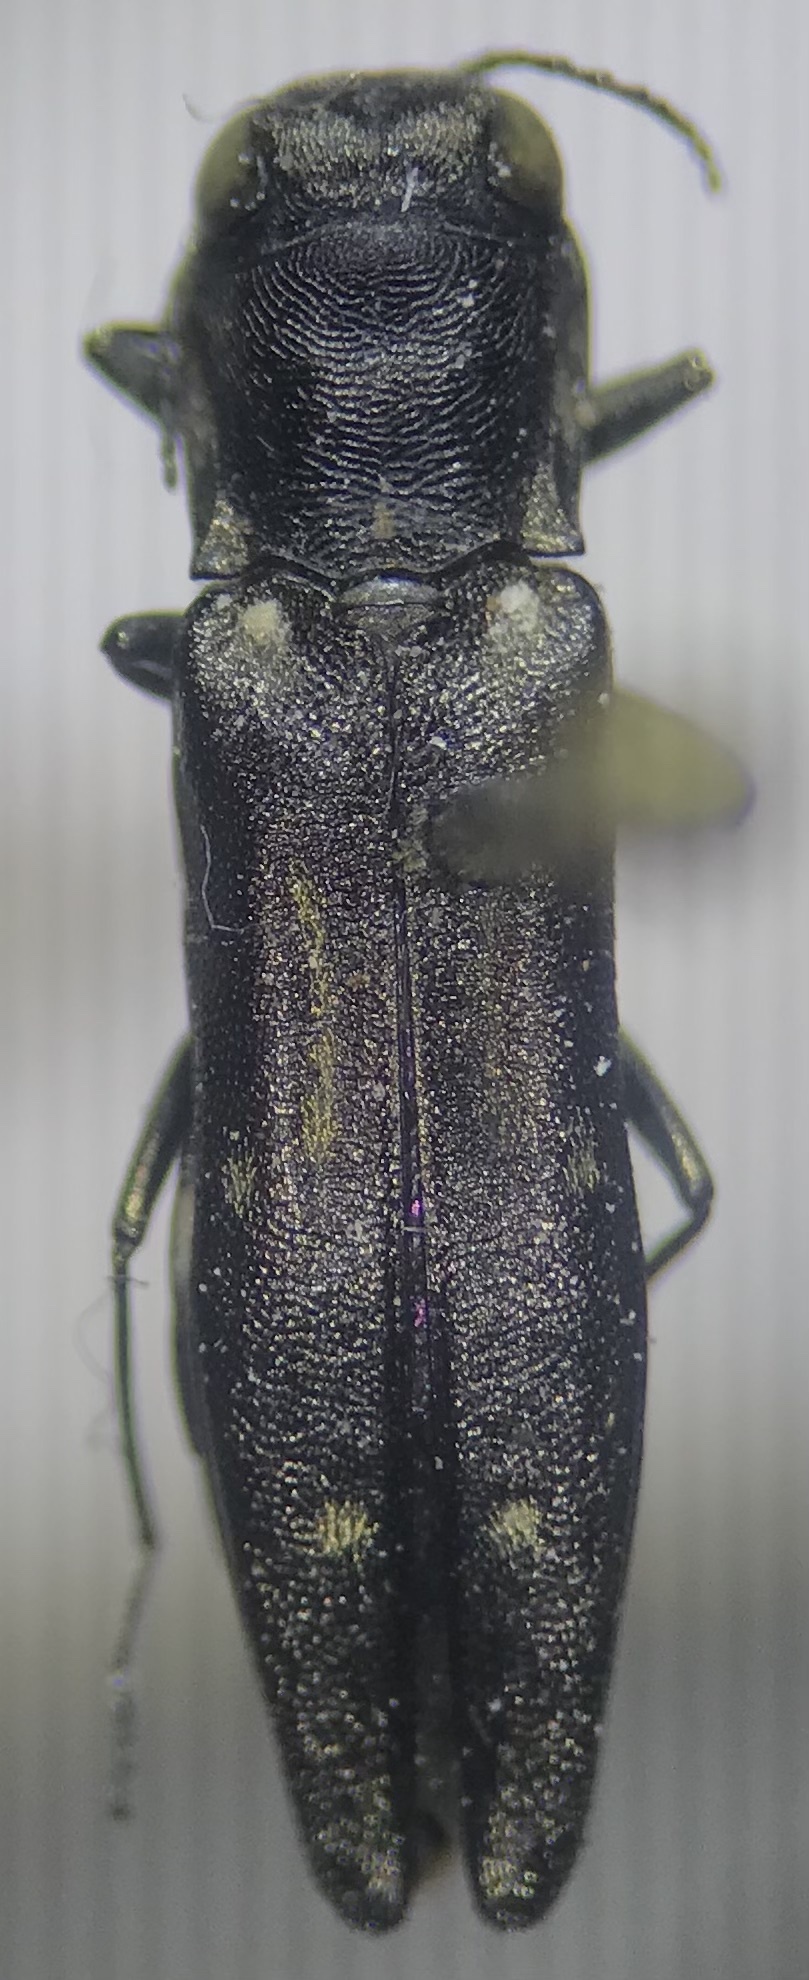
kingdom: Animalia
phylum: Arthropoda
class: Insecta
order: Coleoptera
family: Buprestidae
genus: Agrilus
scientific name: Agrilus obsoletoguttatus
